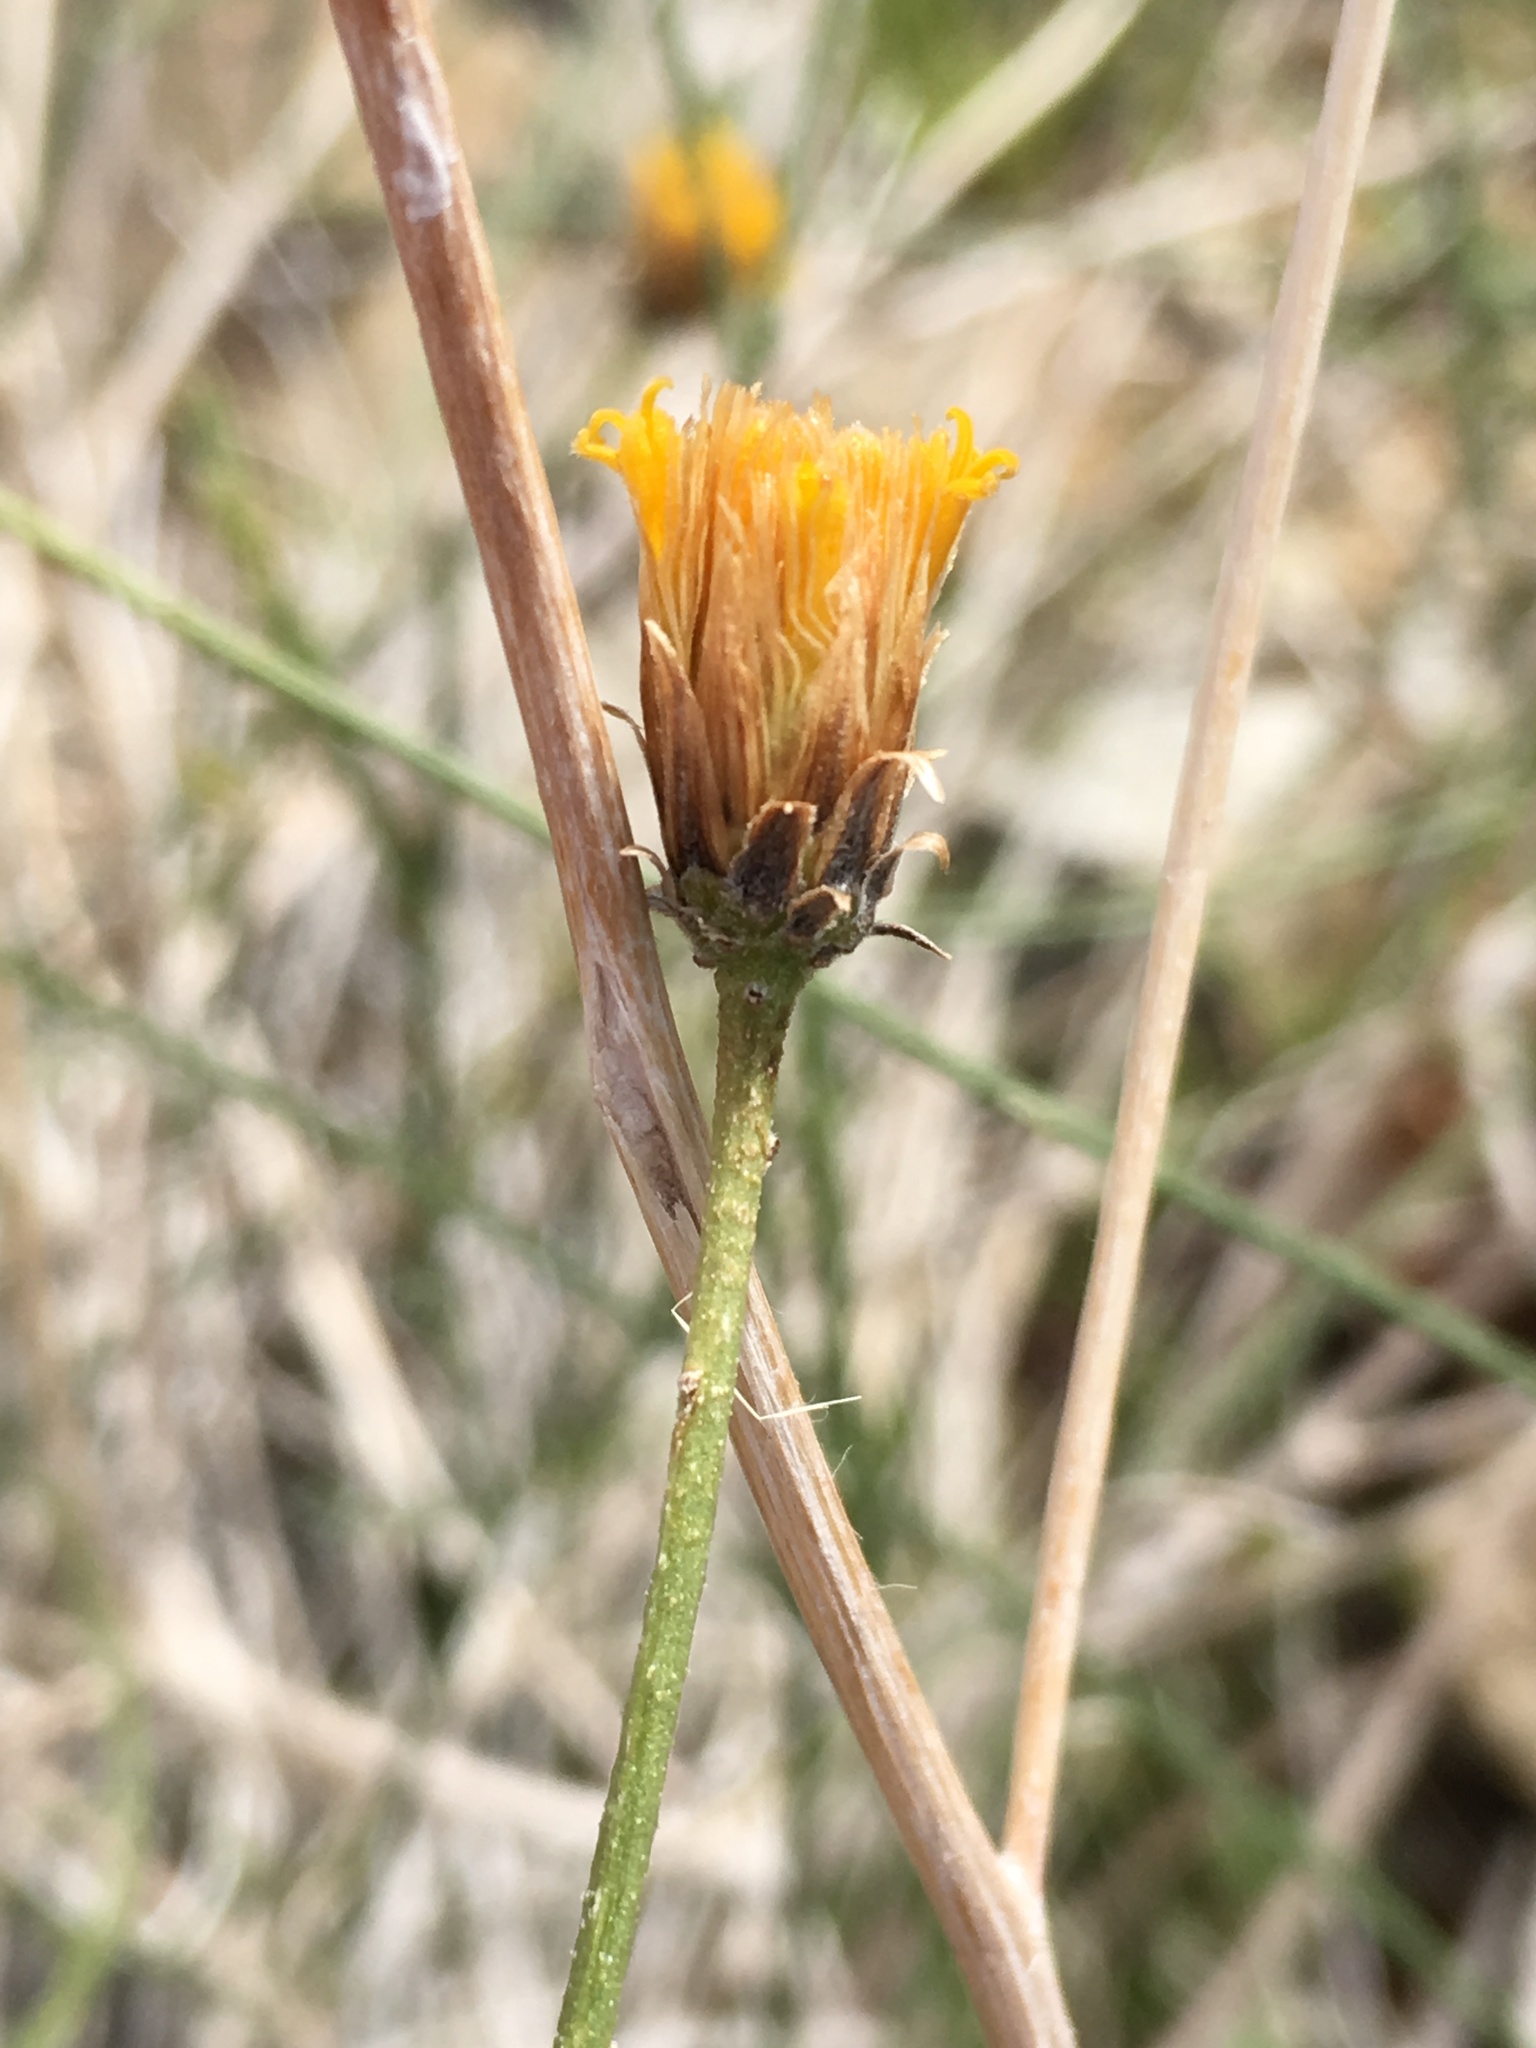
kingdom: Plantae
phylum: Tracheophyta
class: Magnoliopsida
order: Asterales
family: Asteraceae
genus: Bebbia
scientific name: Bebbia juncea
